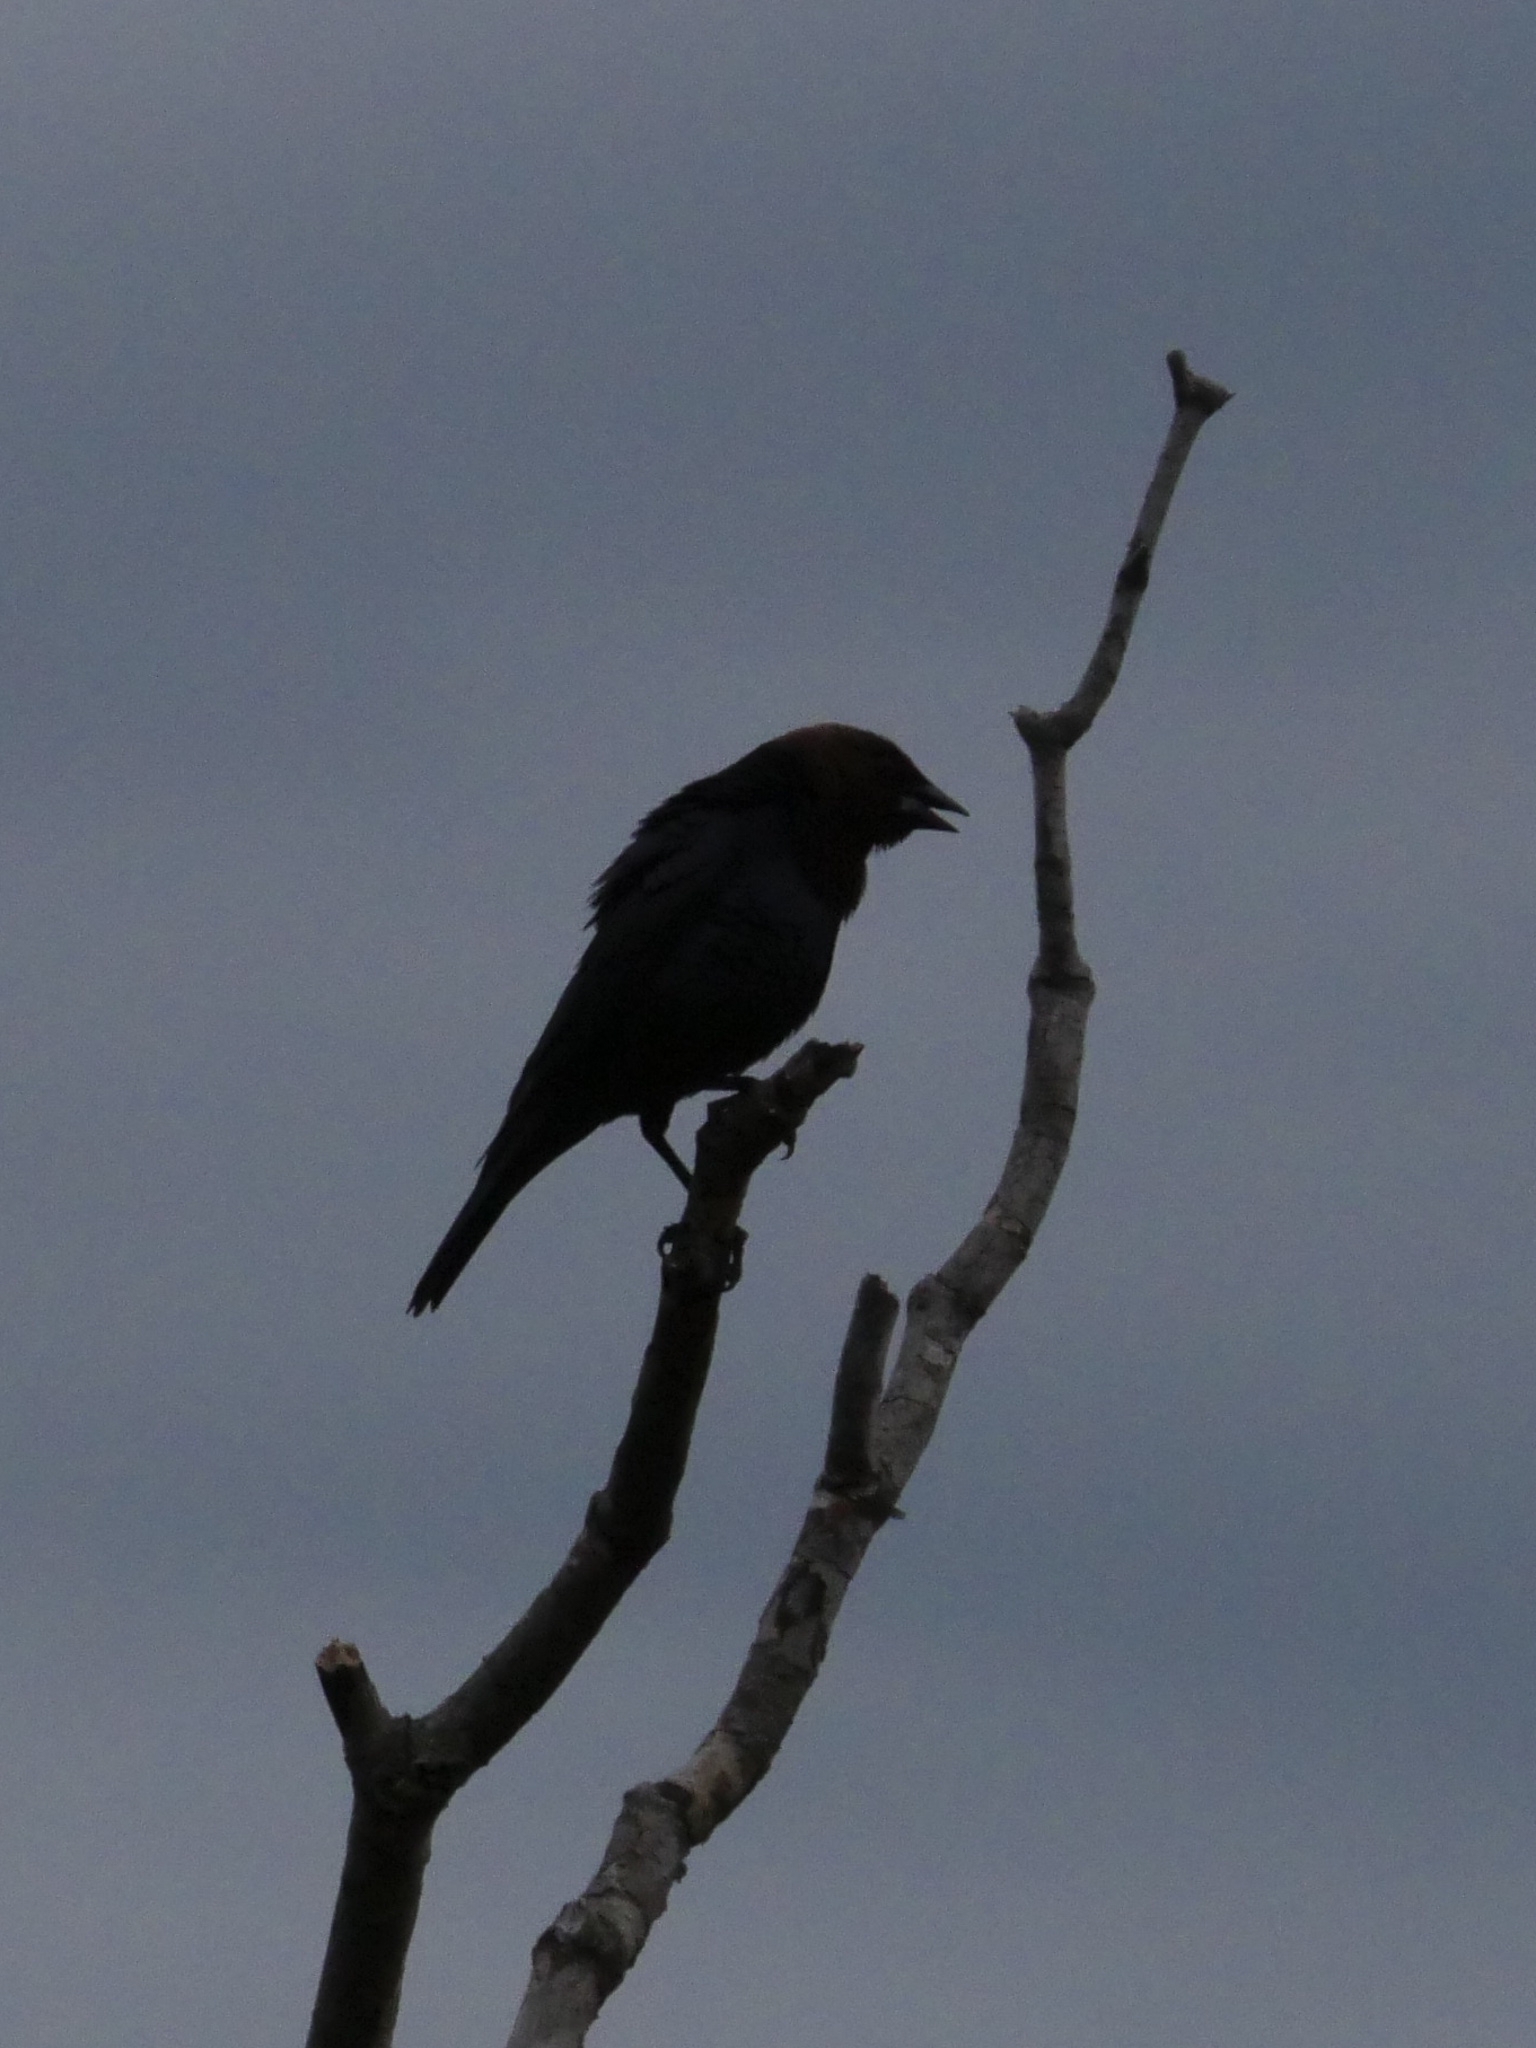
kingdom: Animalia
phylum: Chordata
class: Aves
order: Passeriformes
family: Icteridae
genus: Molothrus
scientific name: Molothrus ater
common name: Brown-headed cowbird
